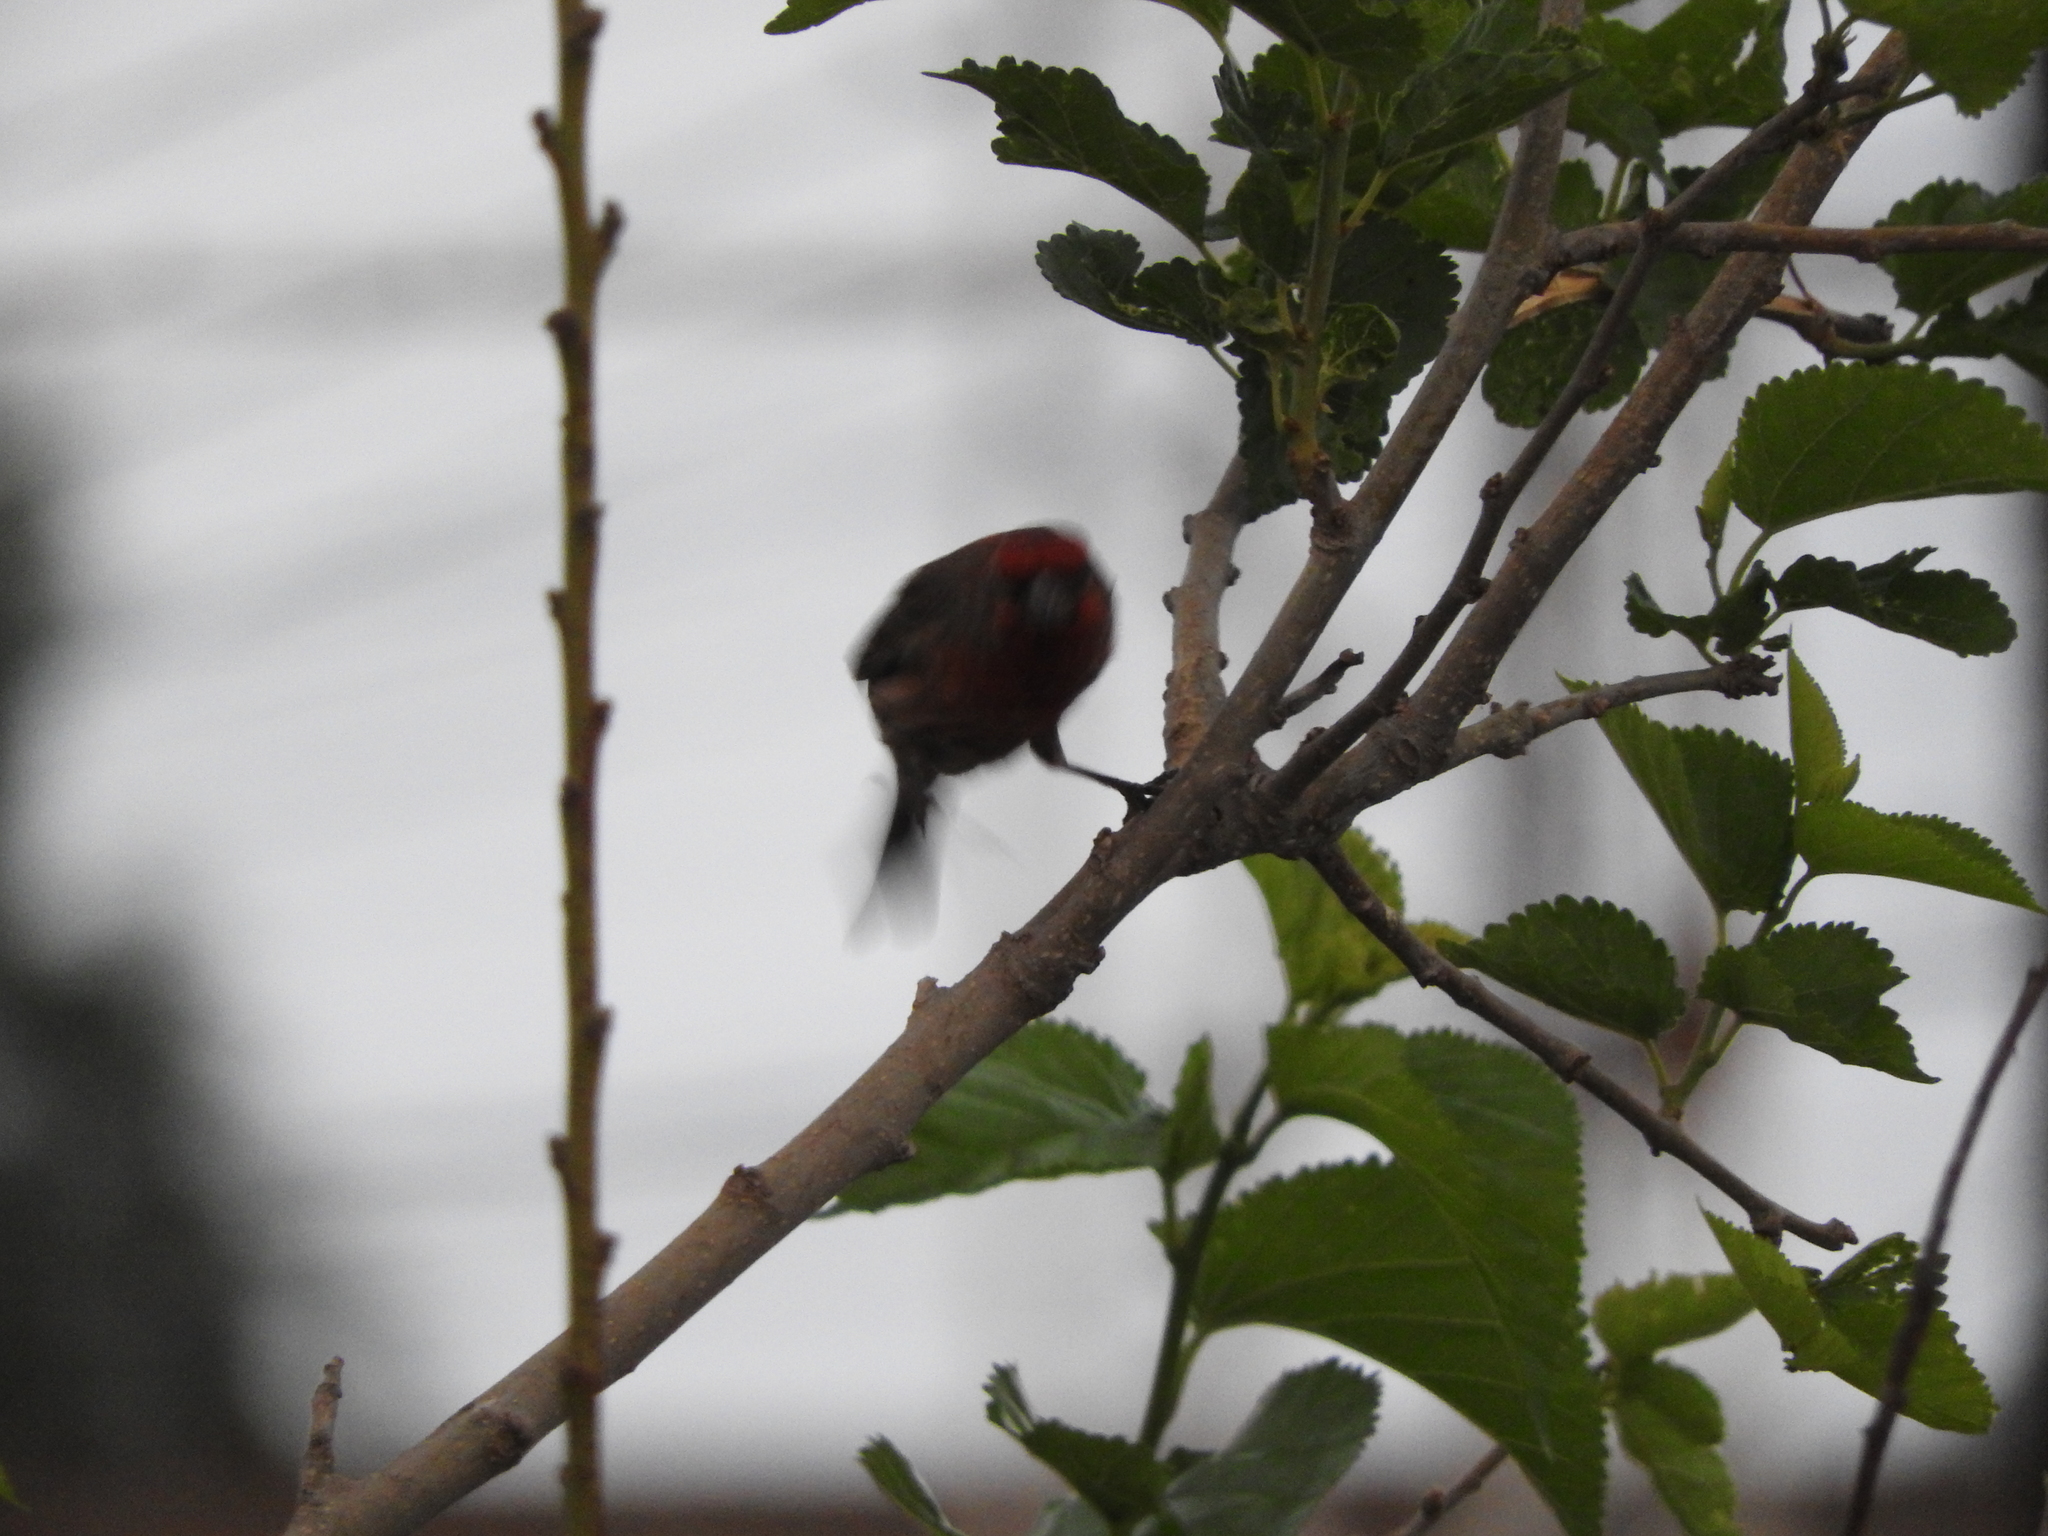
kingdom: Animalia
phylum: Chordata
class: Aves
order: Passeriformes
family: Fringillidae
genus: Haemorhous
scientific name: Haemorhous mexicanus
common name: House finch
